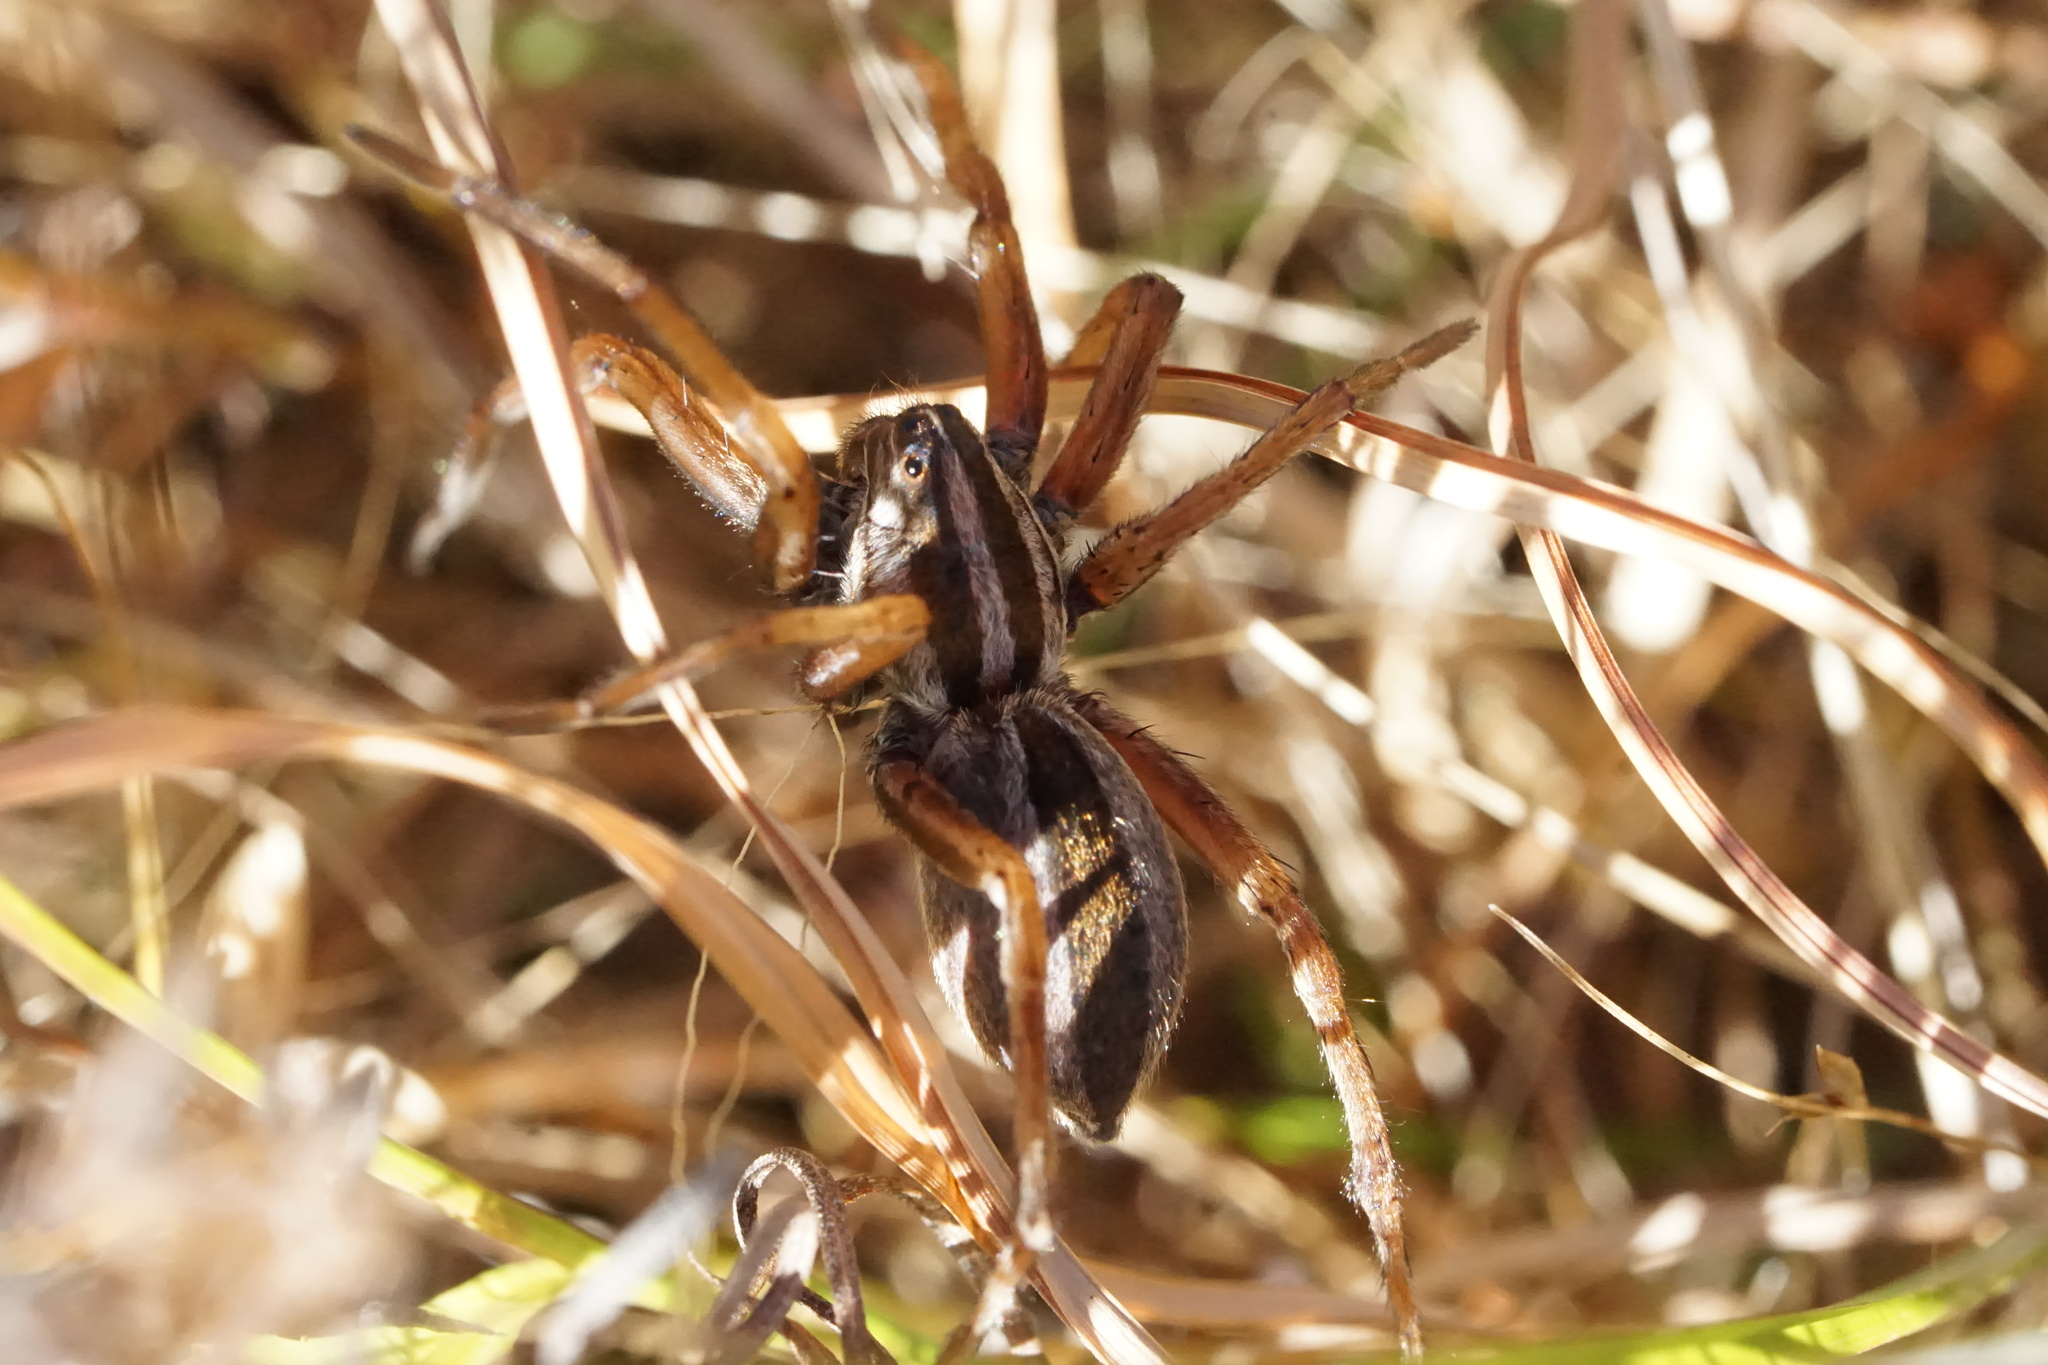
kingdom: Animalia
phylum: Arthropoda
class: Arachnida
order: Araneae
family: Lycosidae
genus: Rabidosa
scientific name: Rabidosa punctulata
